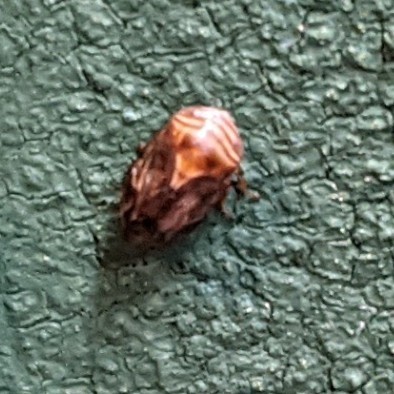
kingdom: Animalia
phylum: Arthropoda
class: Insecta
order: Hemiptera
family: Clastopteridae
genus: Clastoptera
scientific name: Clastoptera obtusa
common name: Alder spittlebug
